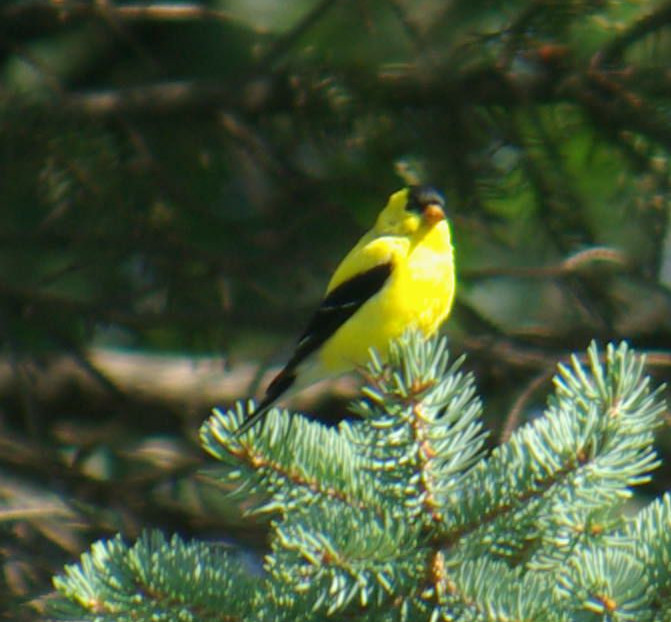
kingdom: Animalia
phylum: Chordata
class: Aves
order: Passeriformes
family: Fringillidae
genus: Spinus
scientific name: Spinus tristis
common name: American goldfinch
